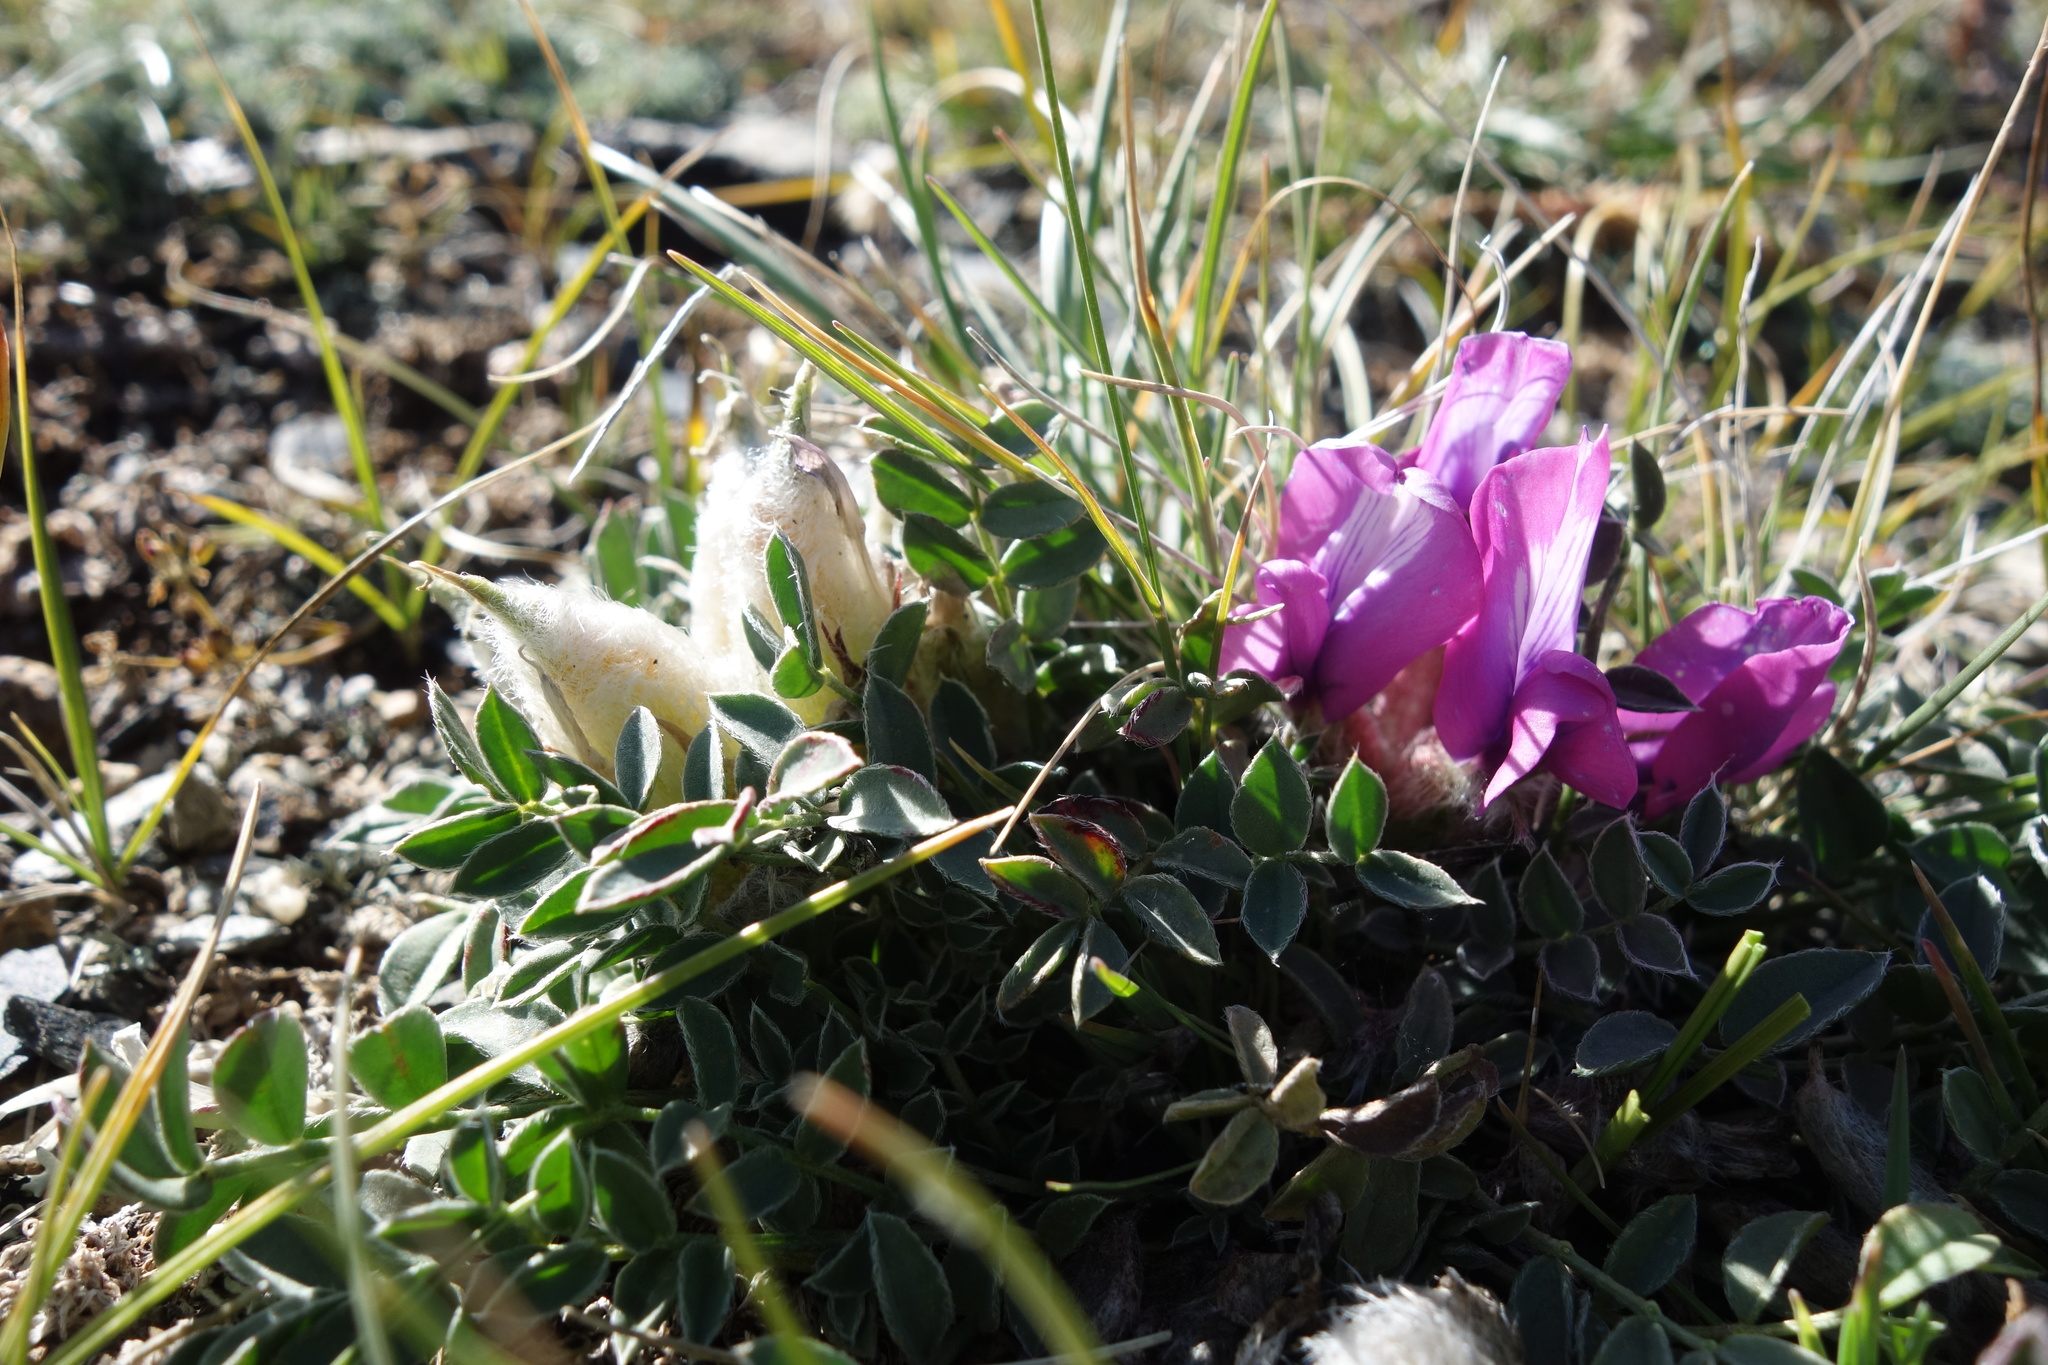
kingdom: Plantae
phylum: Tracheophyta
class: Magnoliopsida
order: Fabales
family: Fabaceae
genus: Oxytropis
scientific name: Oxytropis intermedia
